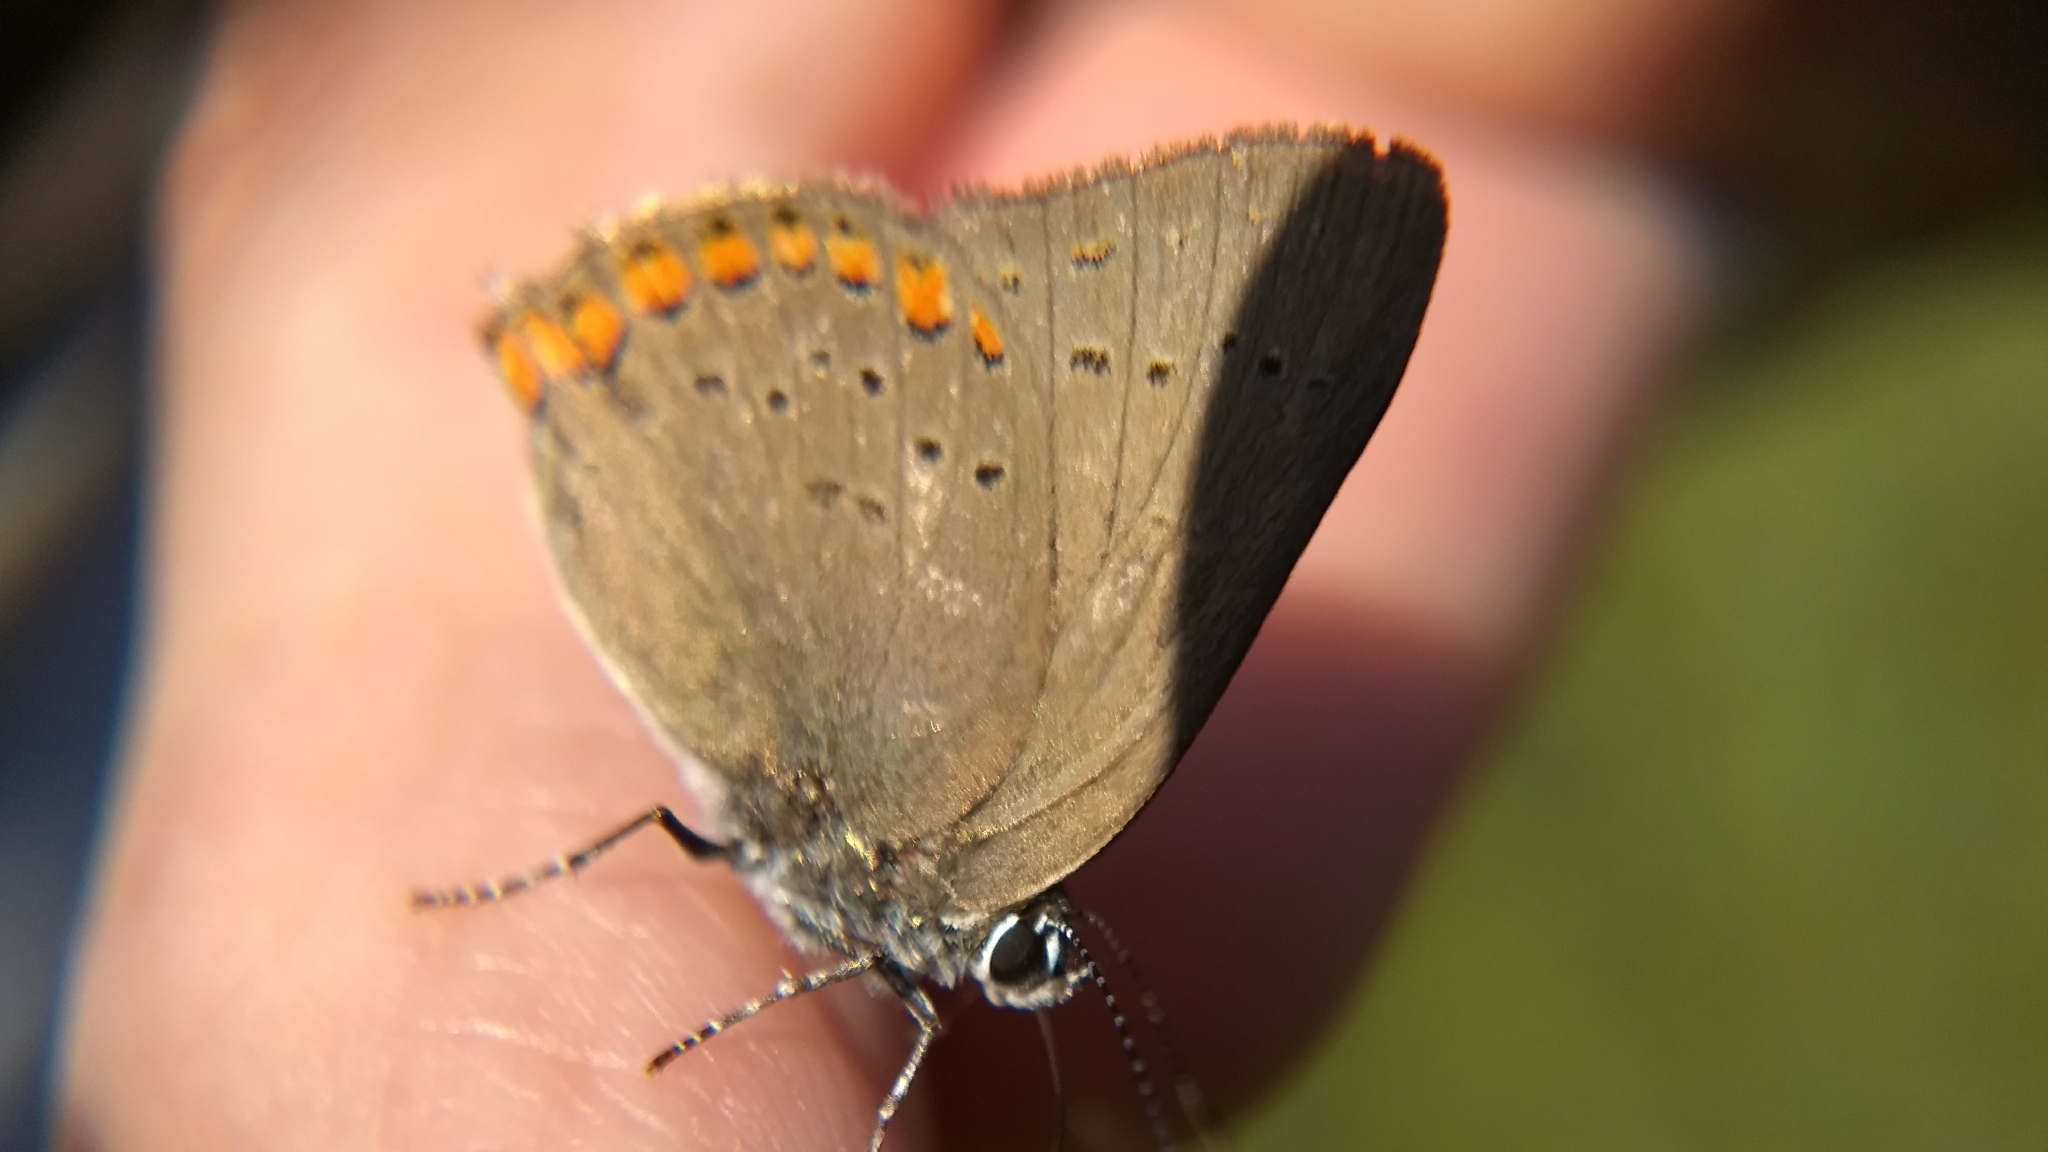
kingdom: Animalia
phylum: Arthropoda
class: Insecta
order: Lepidoptera
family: Lycaenidae
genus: Harkenclenus
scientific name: Harkenclenus titus
